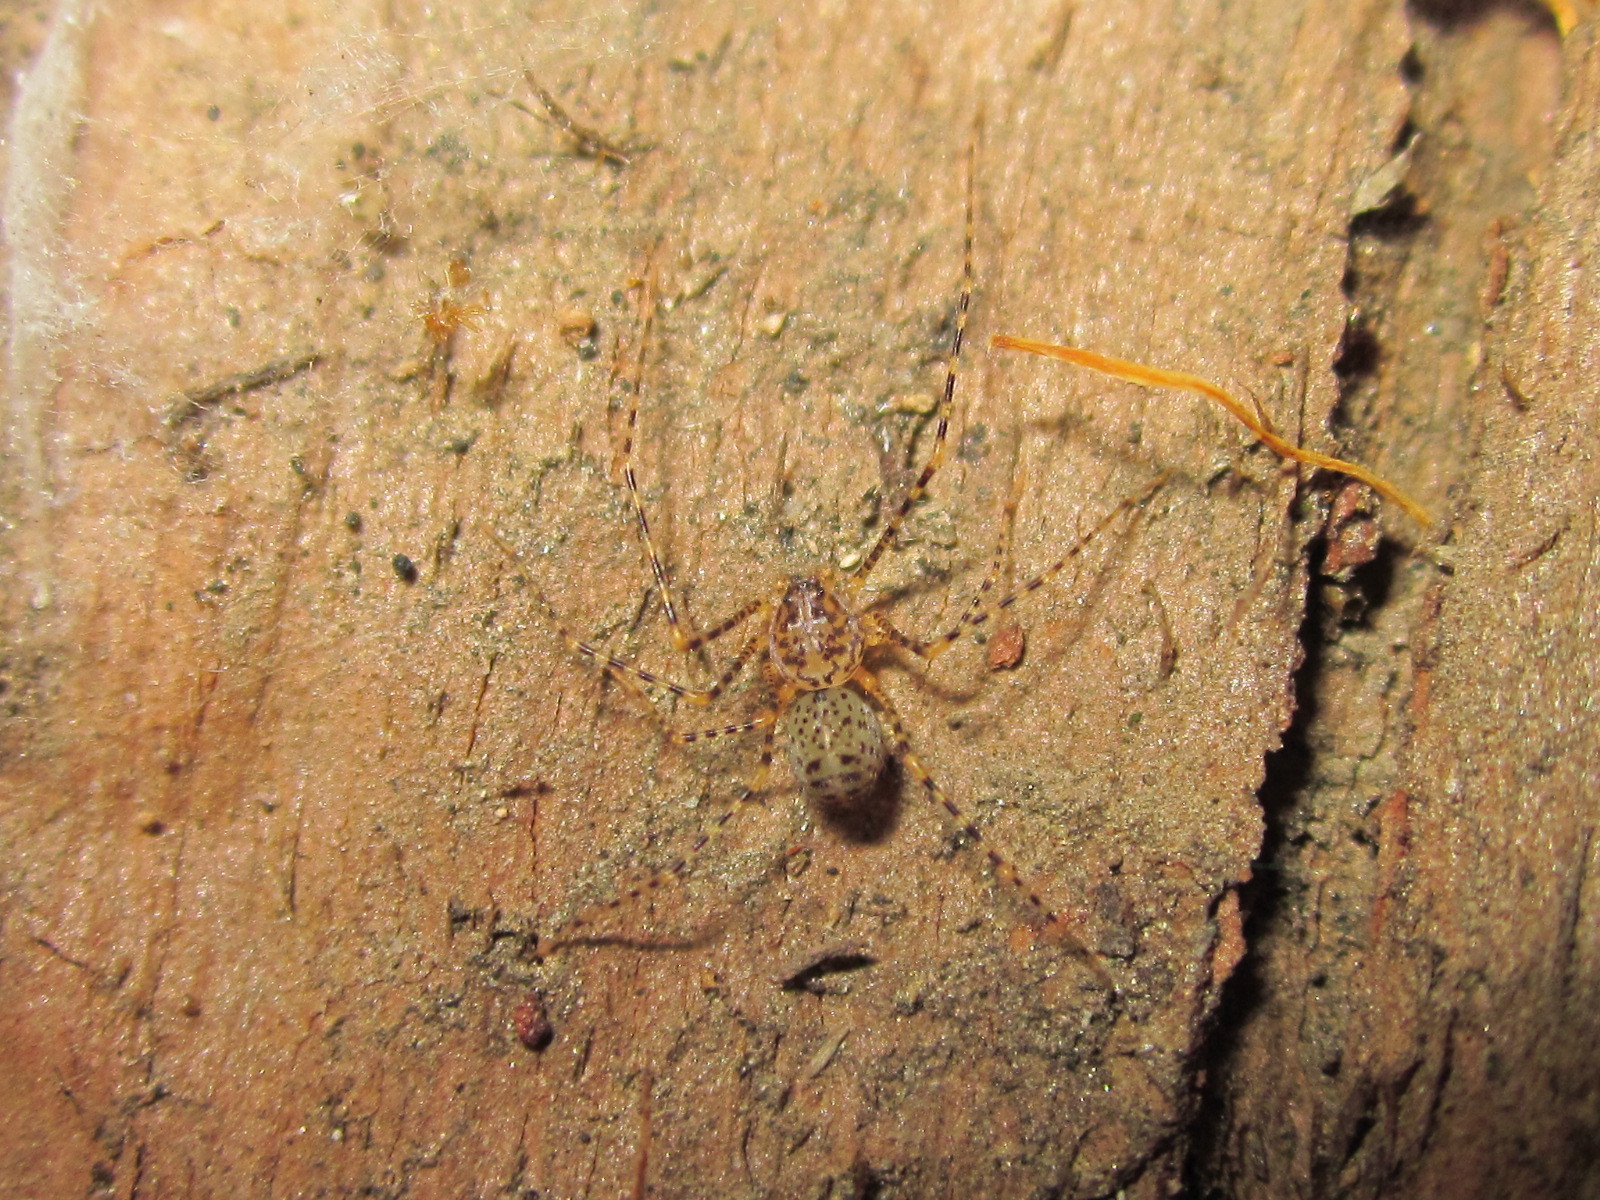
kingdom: Animalia
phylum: Arthropoda
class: Arachnida
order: Araneae
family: Scytodidae
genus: Scytodes
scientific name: Scytodes globula
